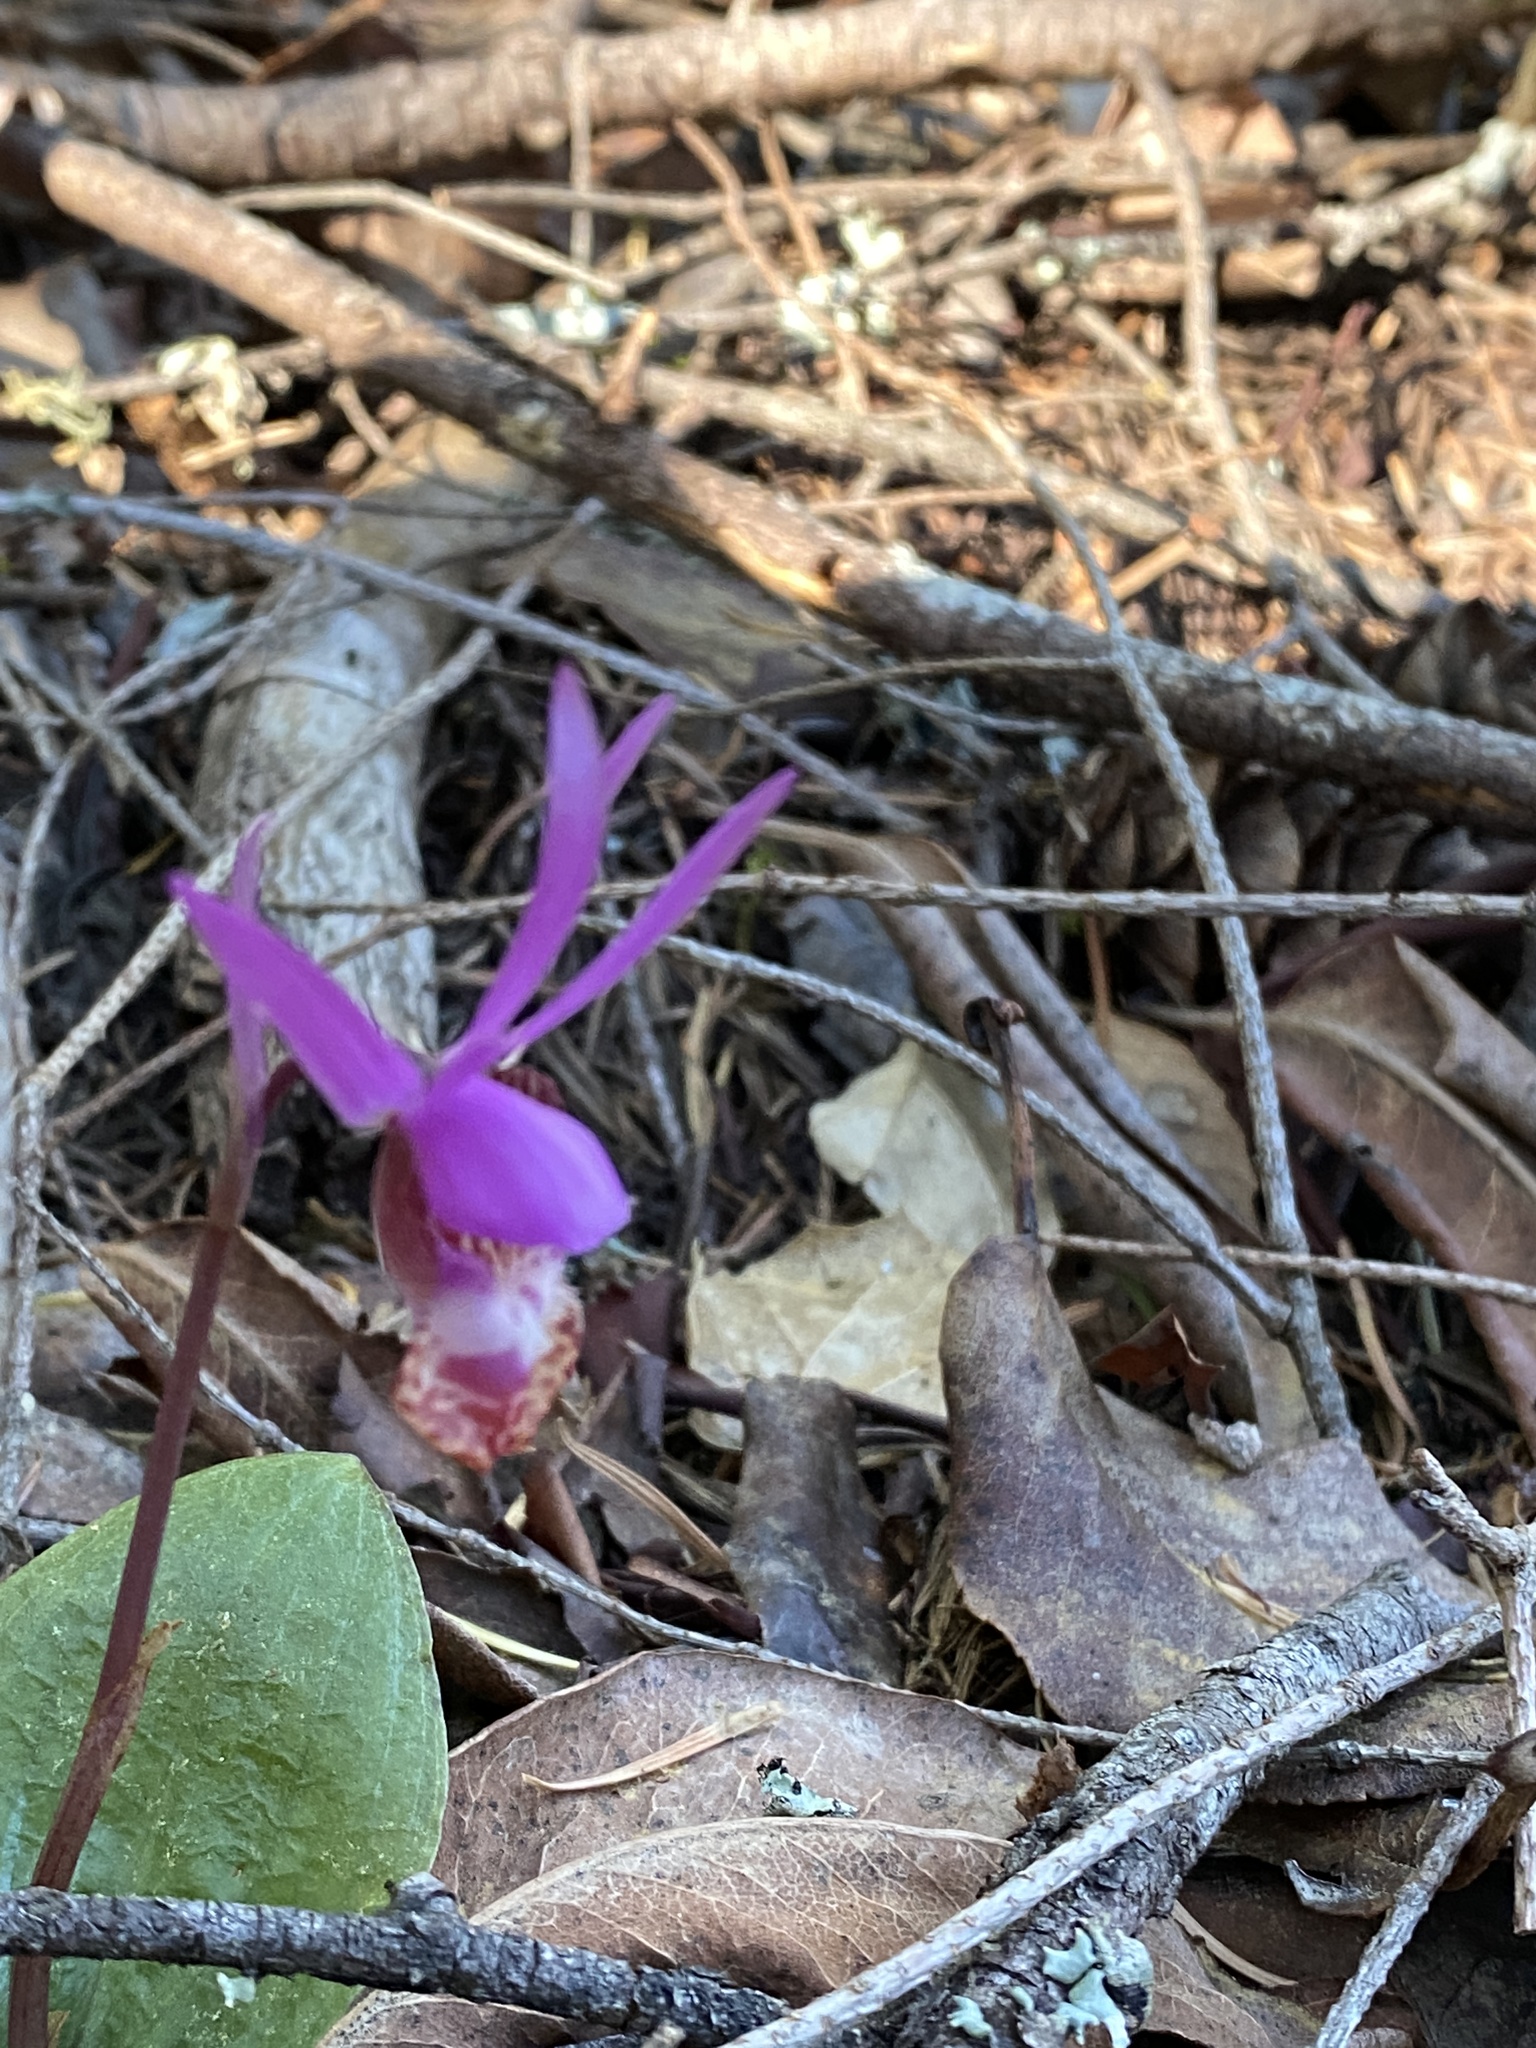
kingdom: Plantae
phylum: Tracheophyta
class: Liliopsida
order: Asparagales
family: Orchidaceae
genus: Calypso
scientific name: Calypso bulbosa
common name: Calypso
